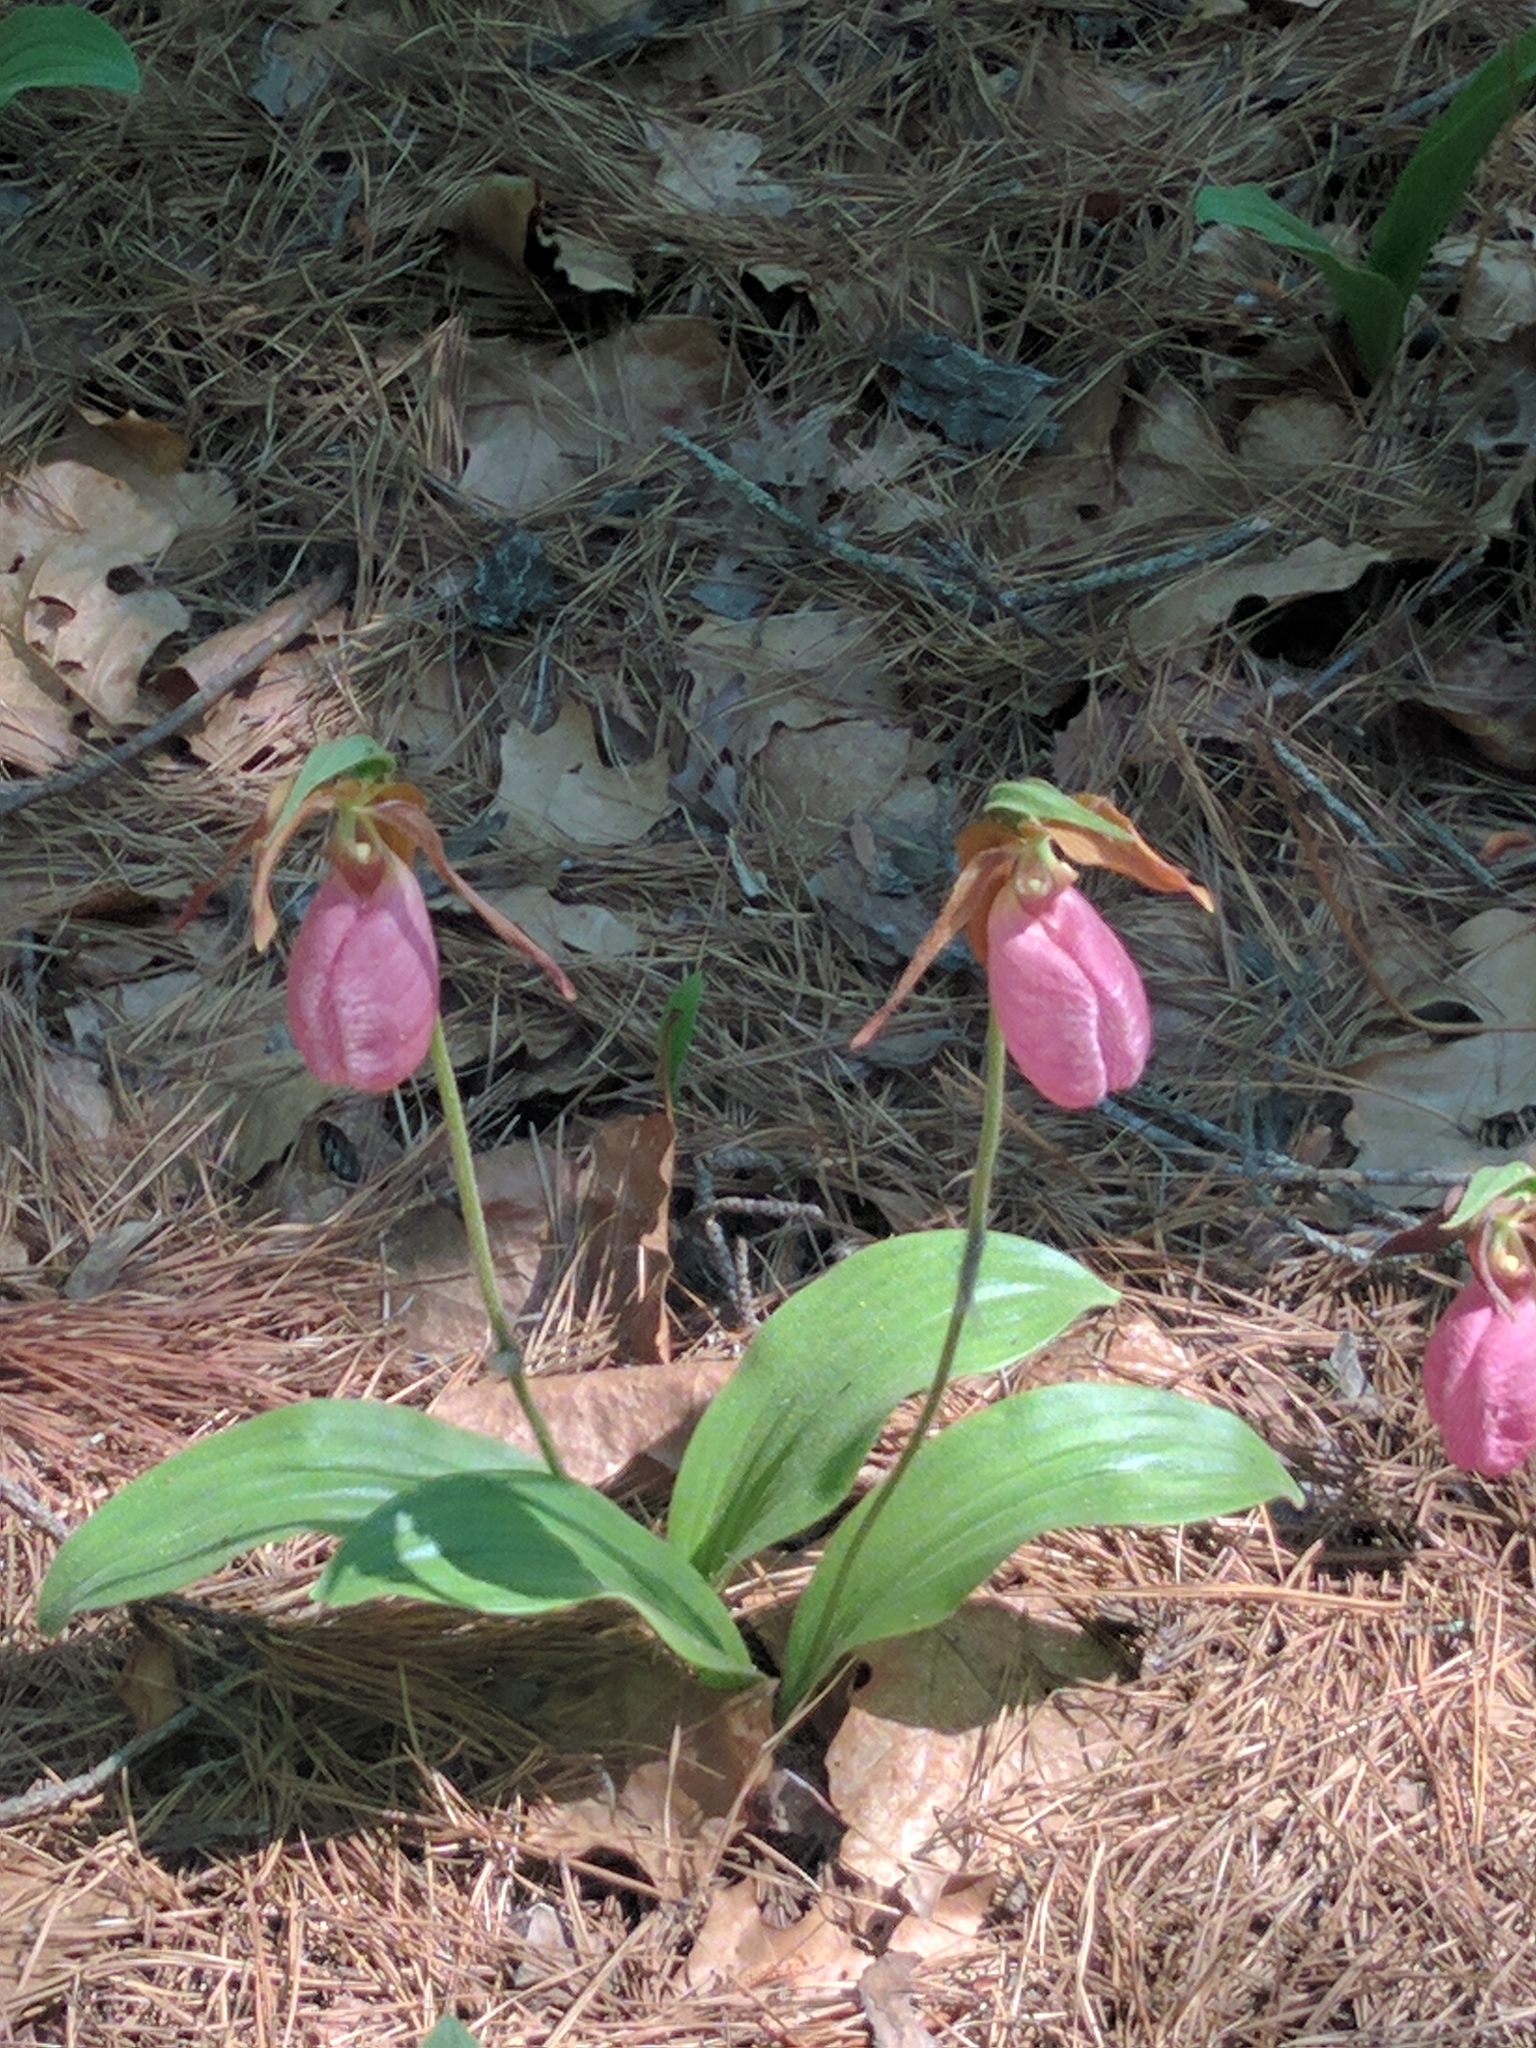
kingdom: Plantae
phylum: Tracheophyta
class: Liliopsida
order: Asparagales
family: Orchidaceae
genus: Cypripedium
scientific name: Cypripedium acaule
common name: Pink lady's-slipper
